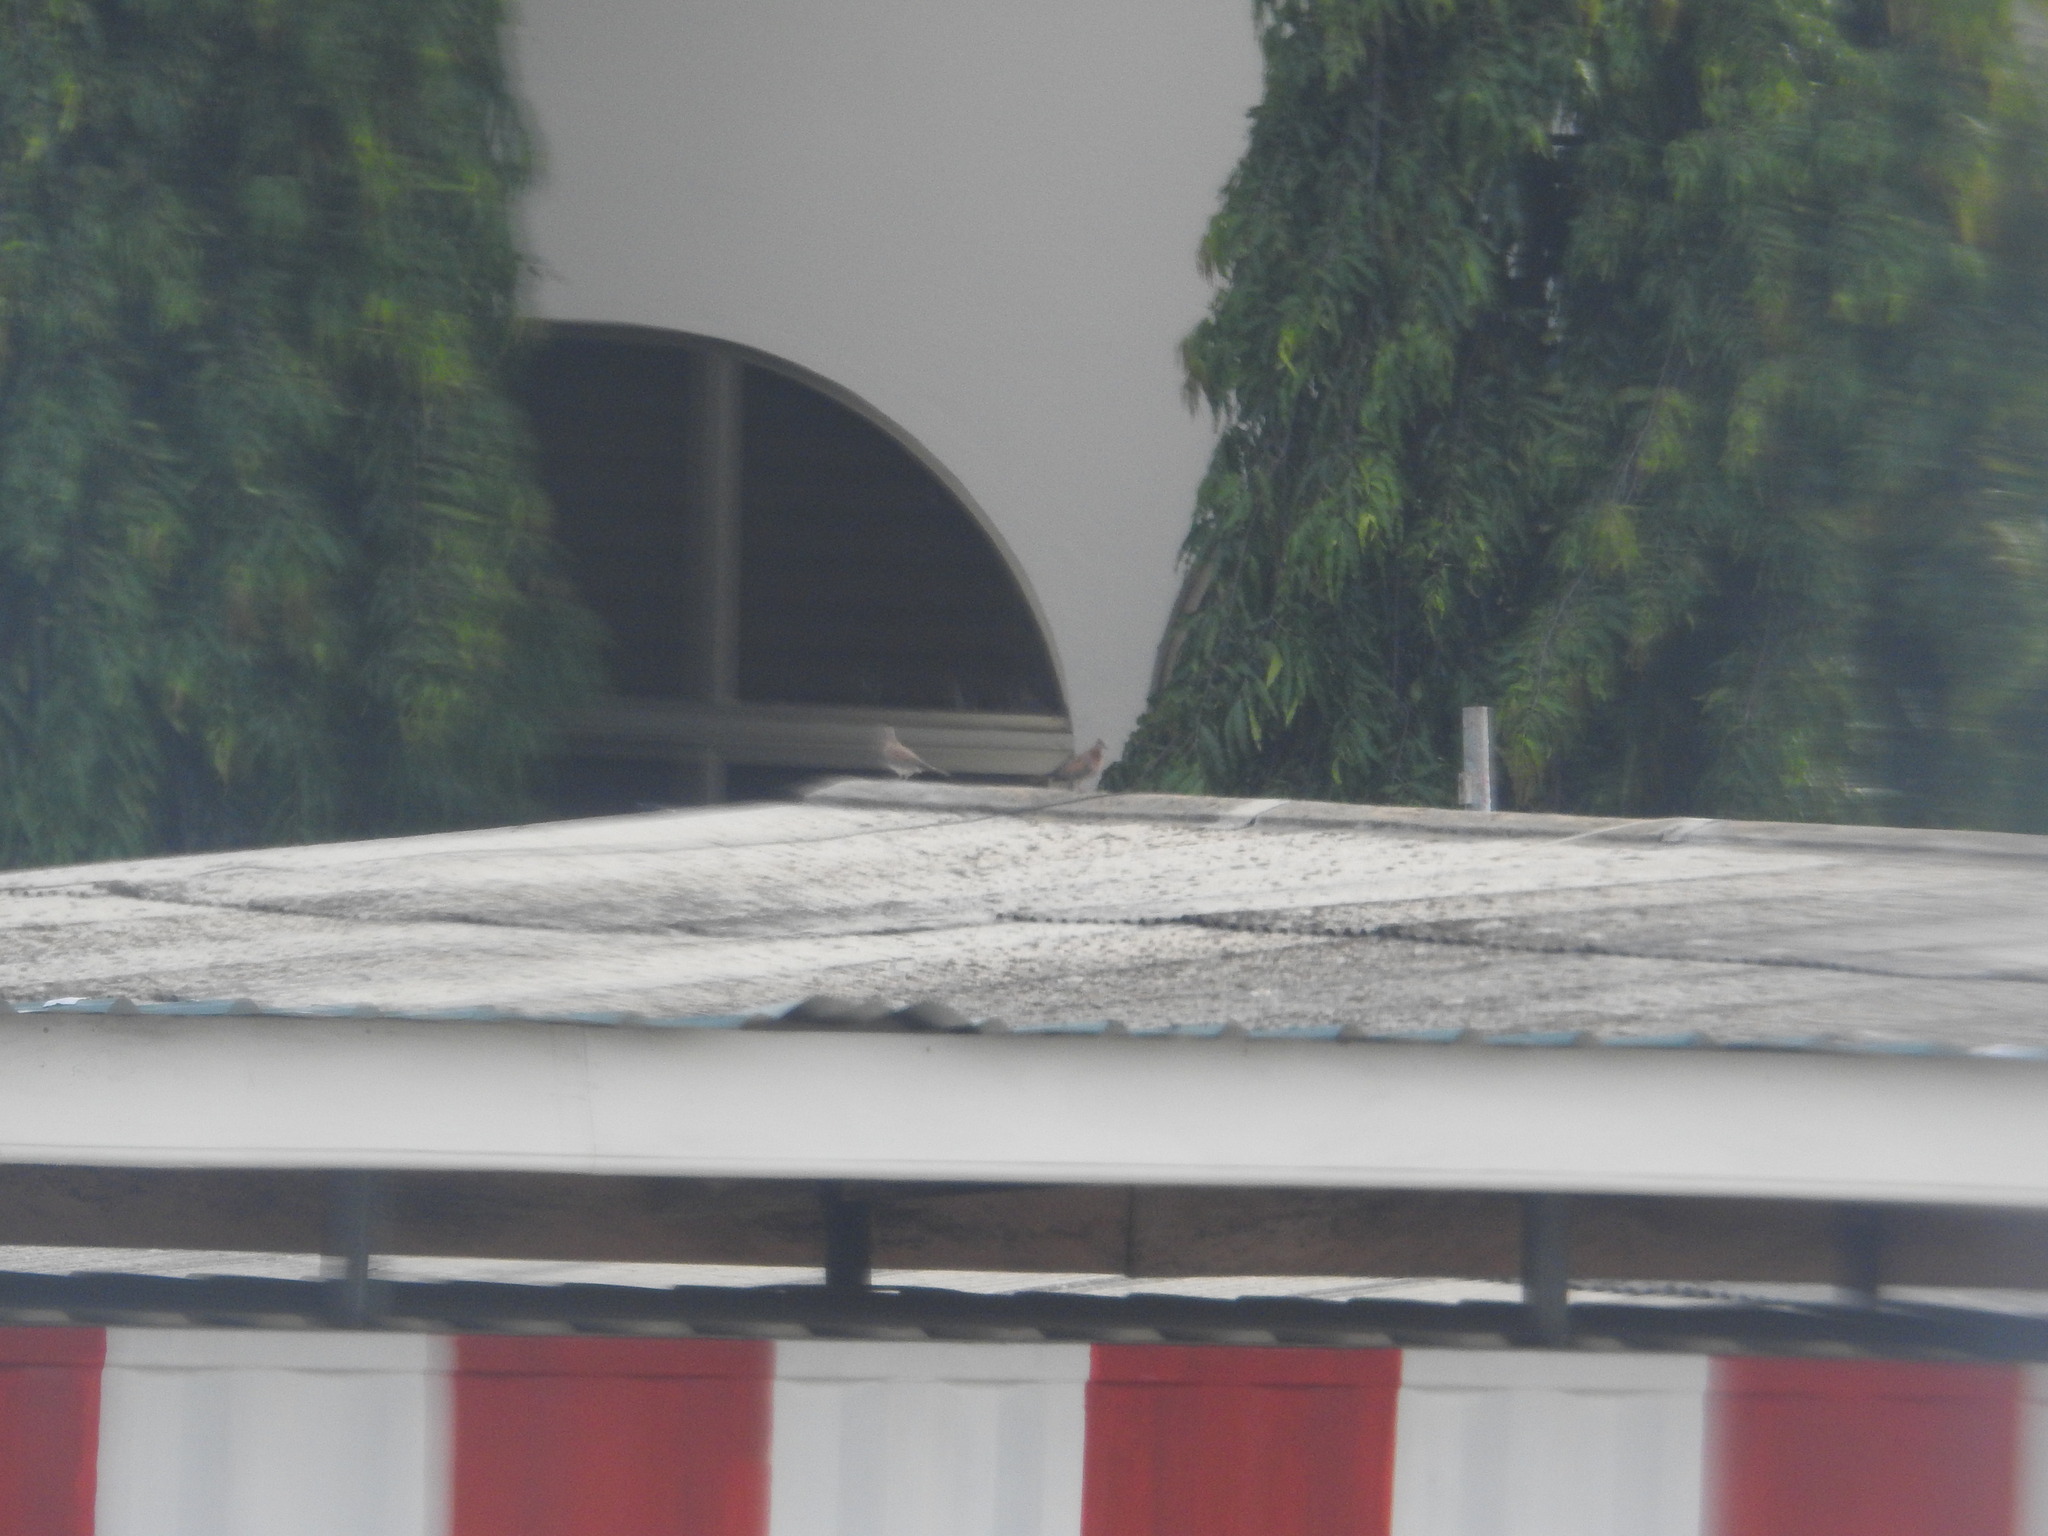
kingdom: Animalia
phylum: Chordata
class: Aves
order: Columbiformes
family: Columbidae
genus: Spilopelia
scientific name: Spilopelia senegalensis
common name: Laughing dove
